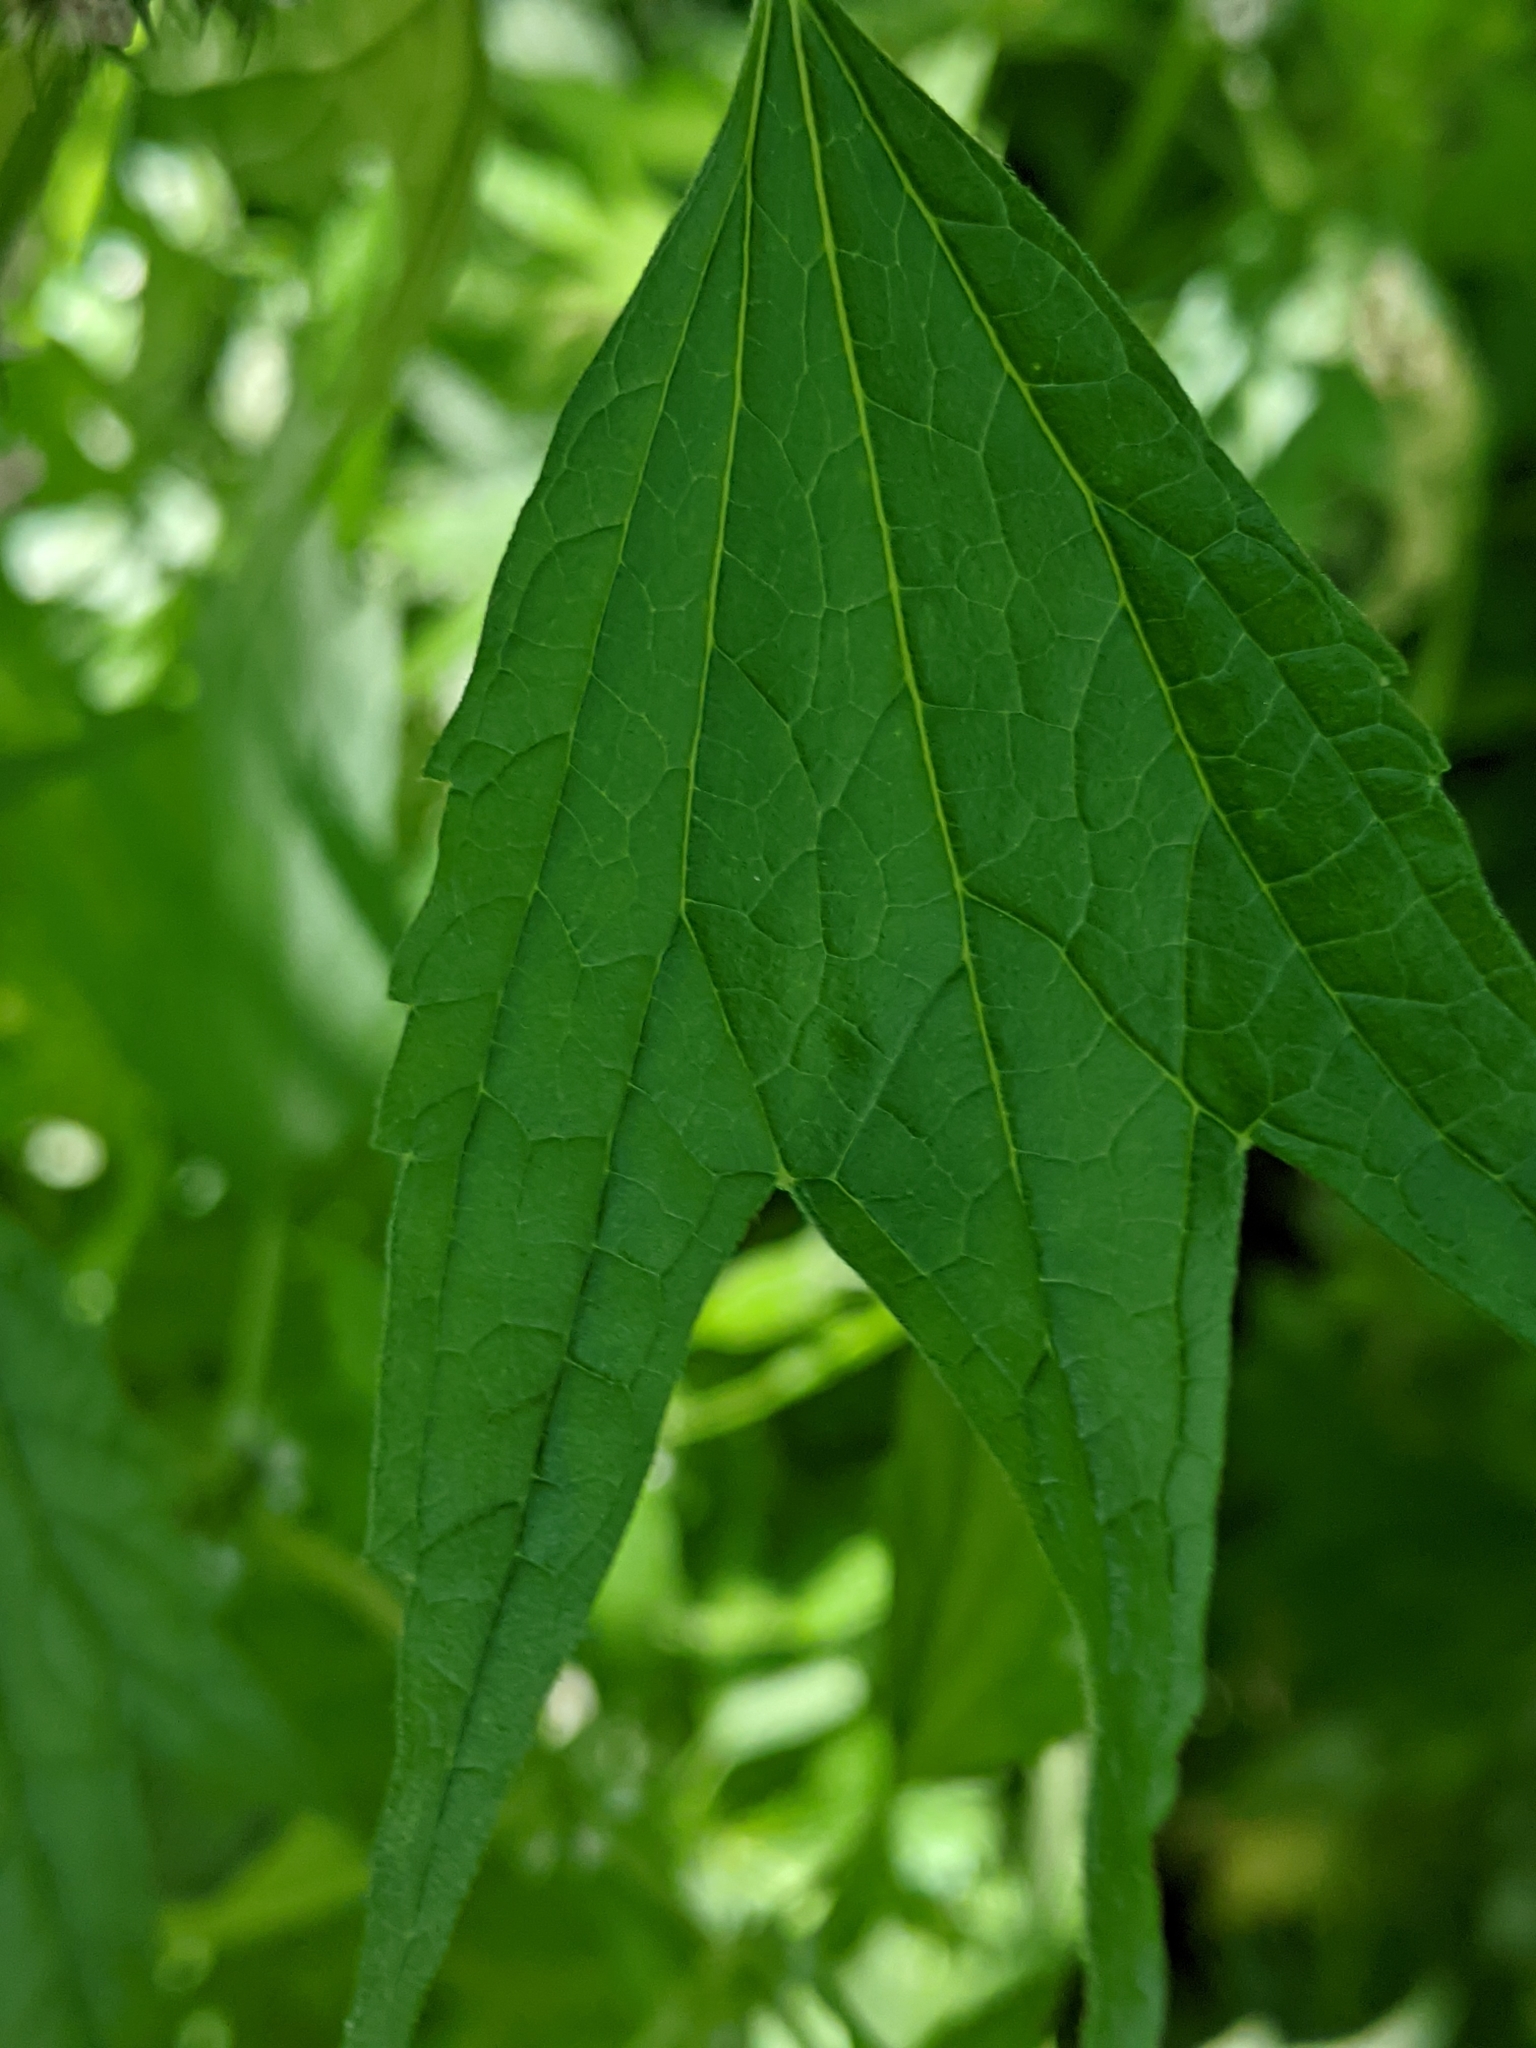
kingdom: Plantae
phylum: Tracheophyta
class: Magnoliopsida
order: Lamiales
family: Lamiaceae
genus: Leonurus
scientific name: Leonurus cardiaca
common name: Motherwort
